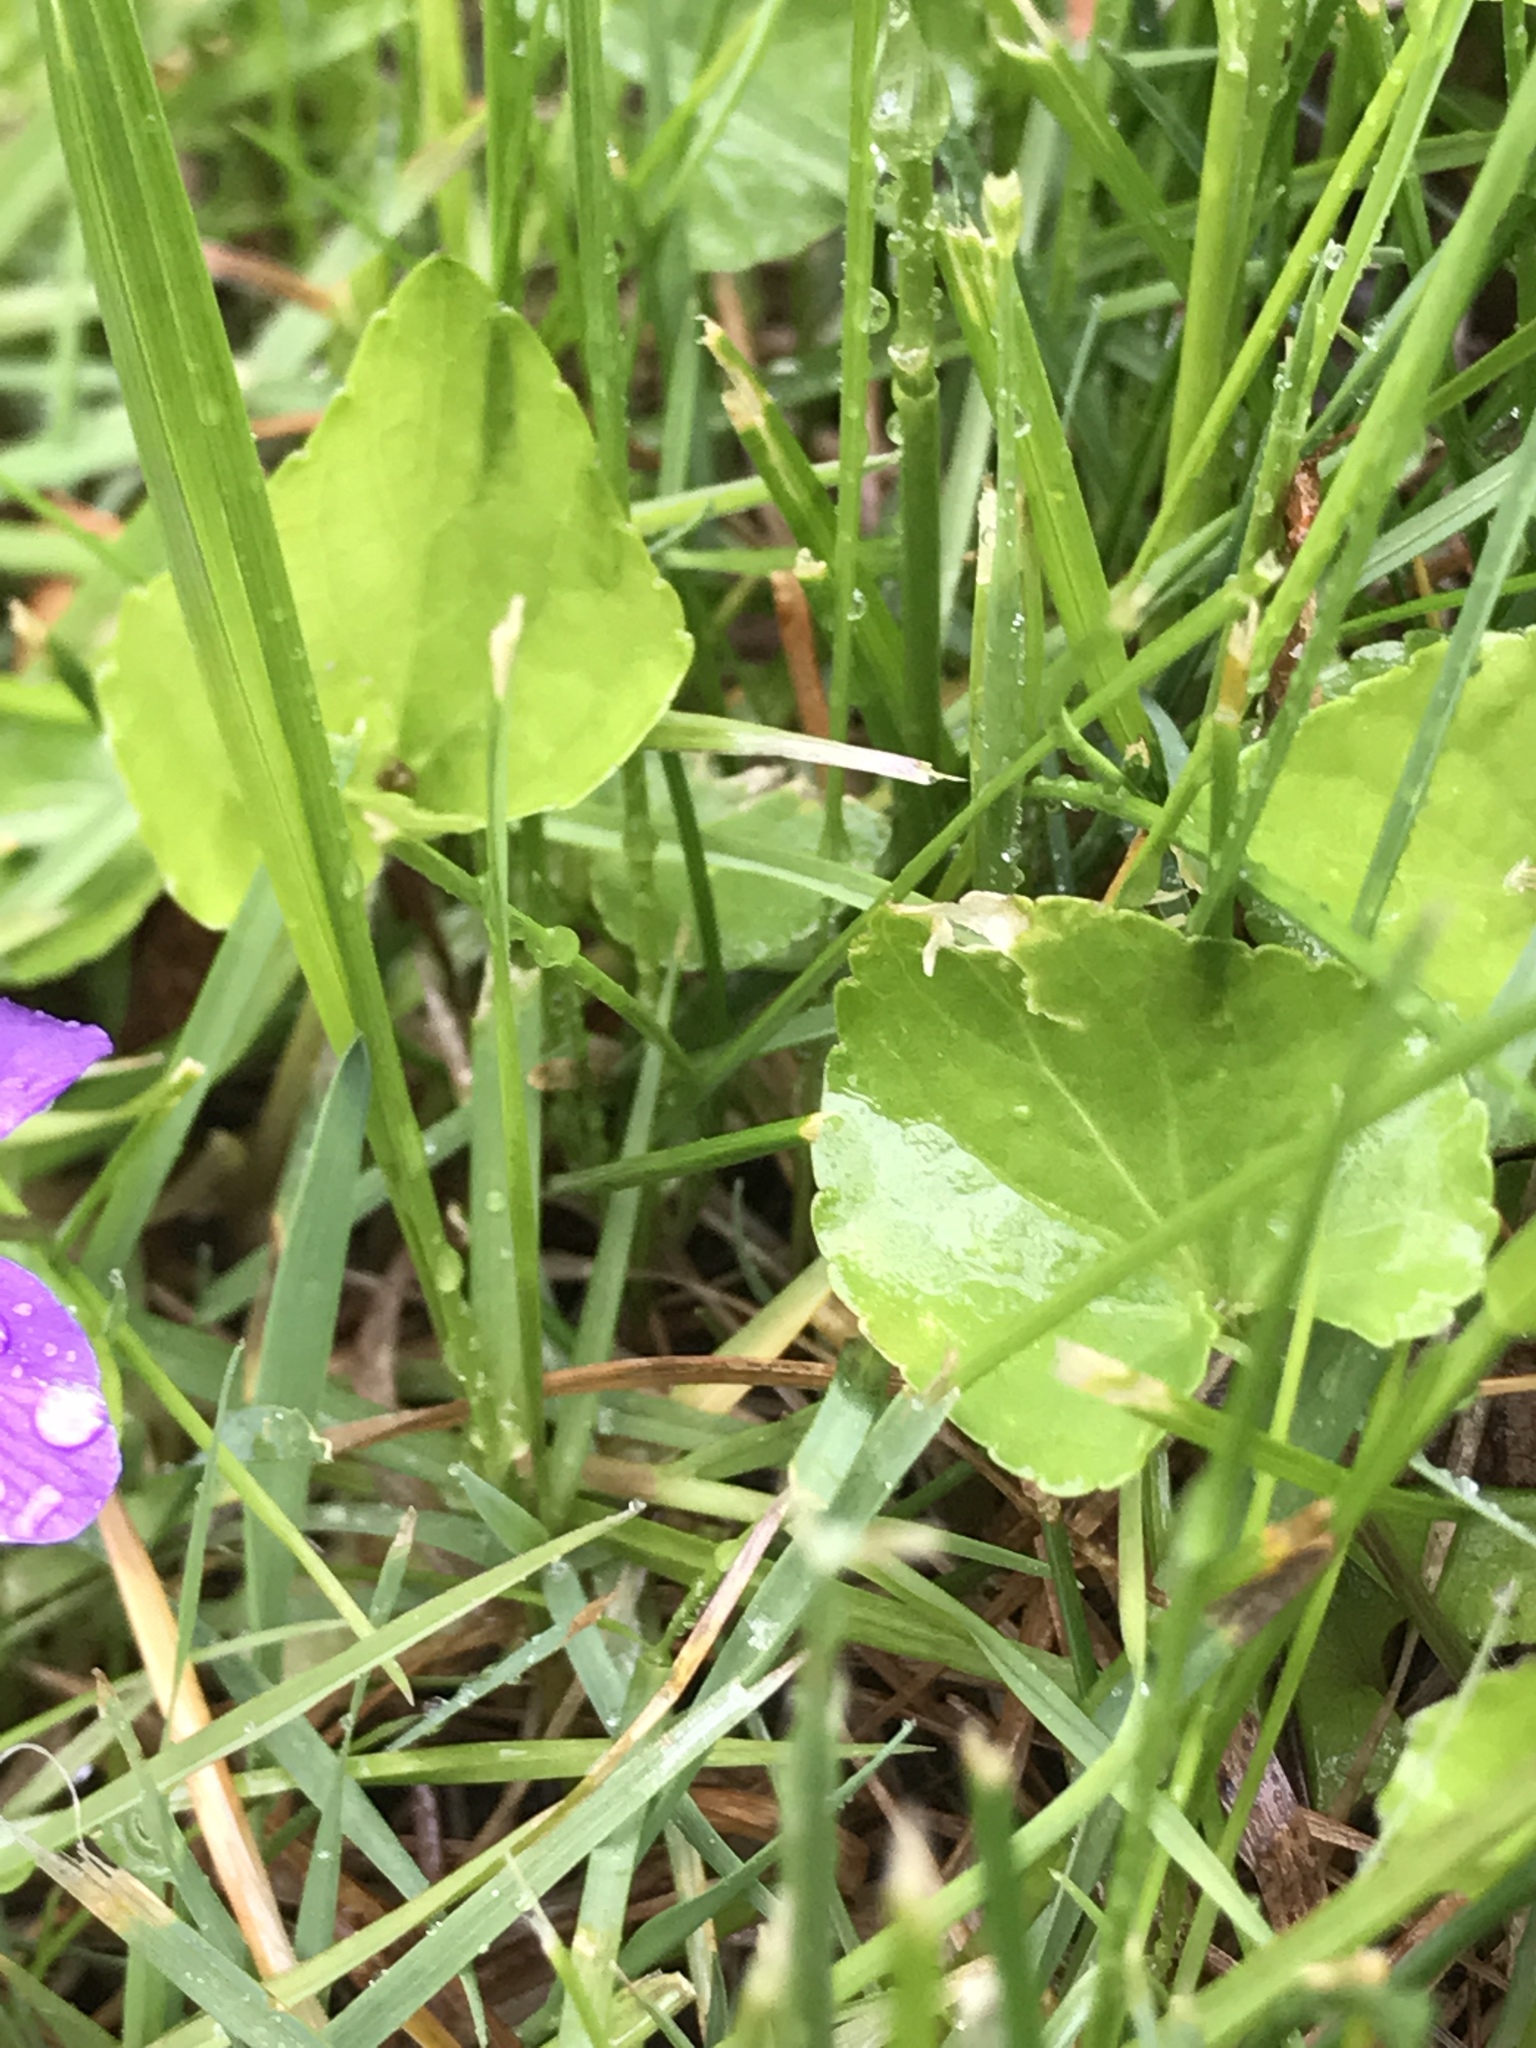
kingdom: Plantae
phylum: Tracheophyta
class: Magnoliopsida
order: Malpighiales
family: Violaceae
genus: Viola
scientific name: Viola sororia
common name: Dooryard violet
